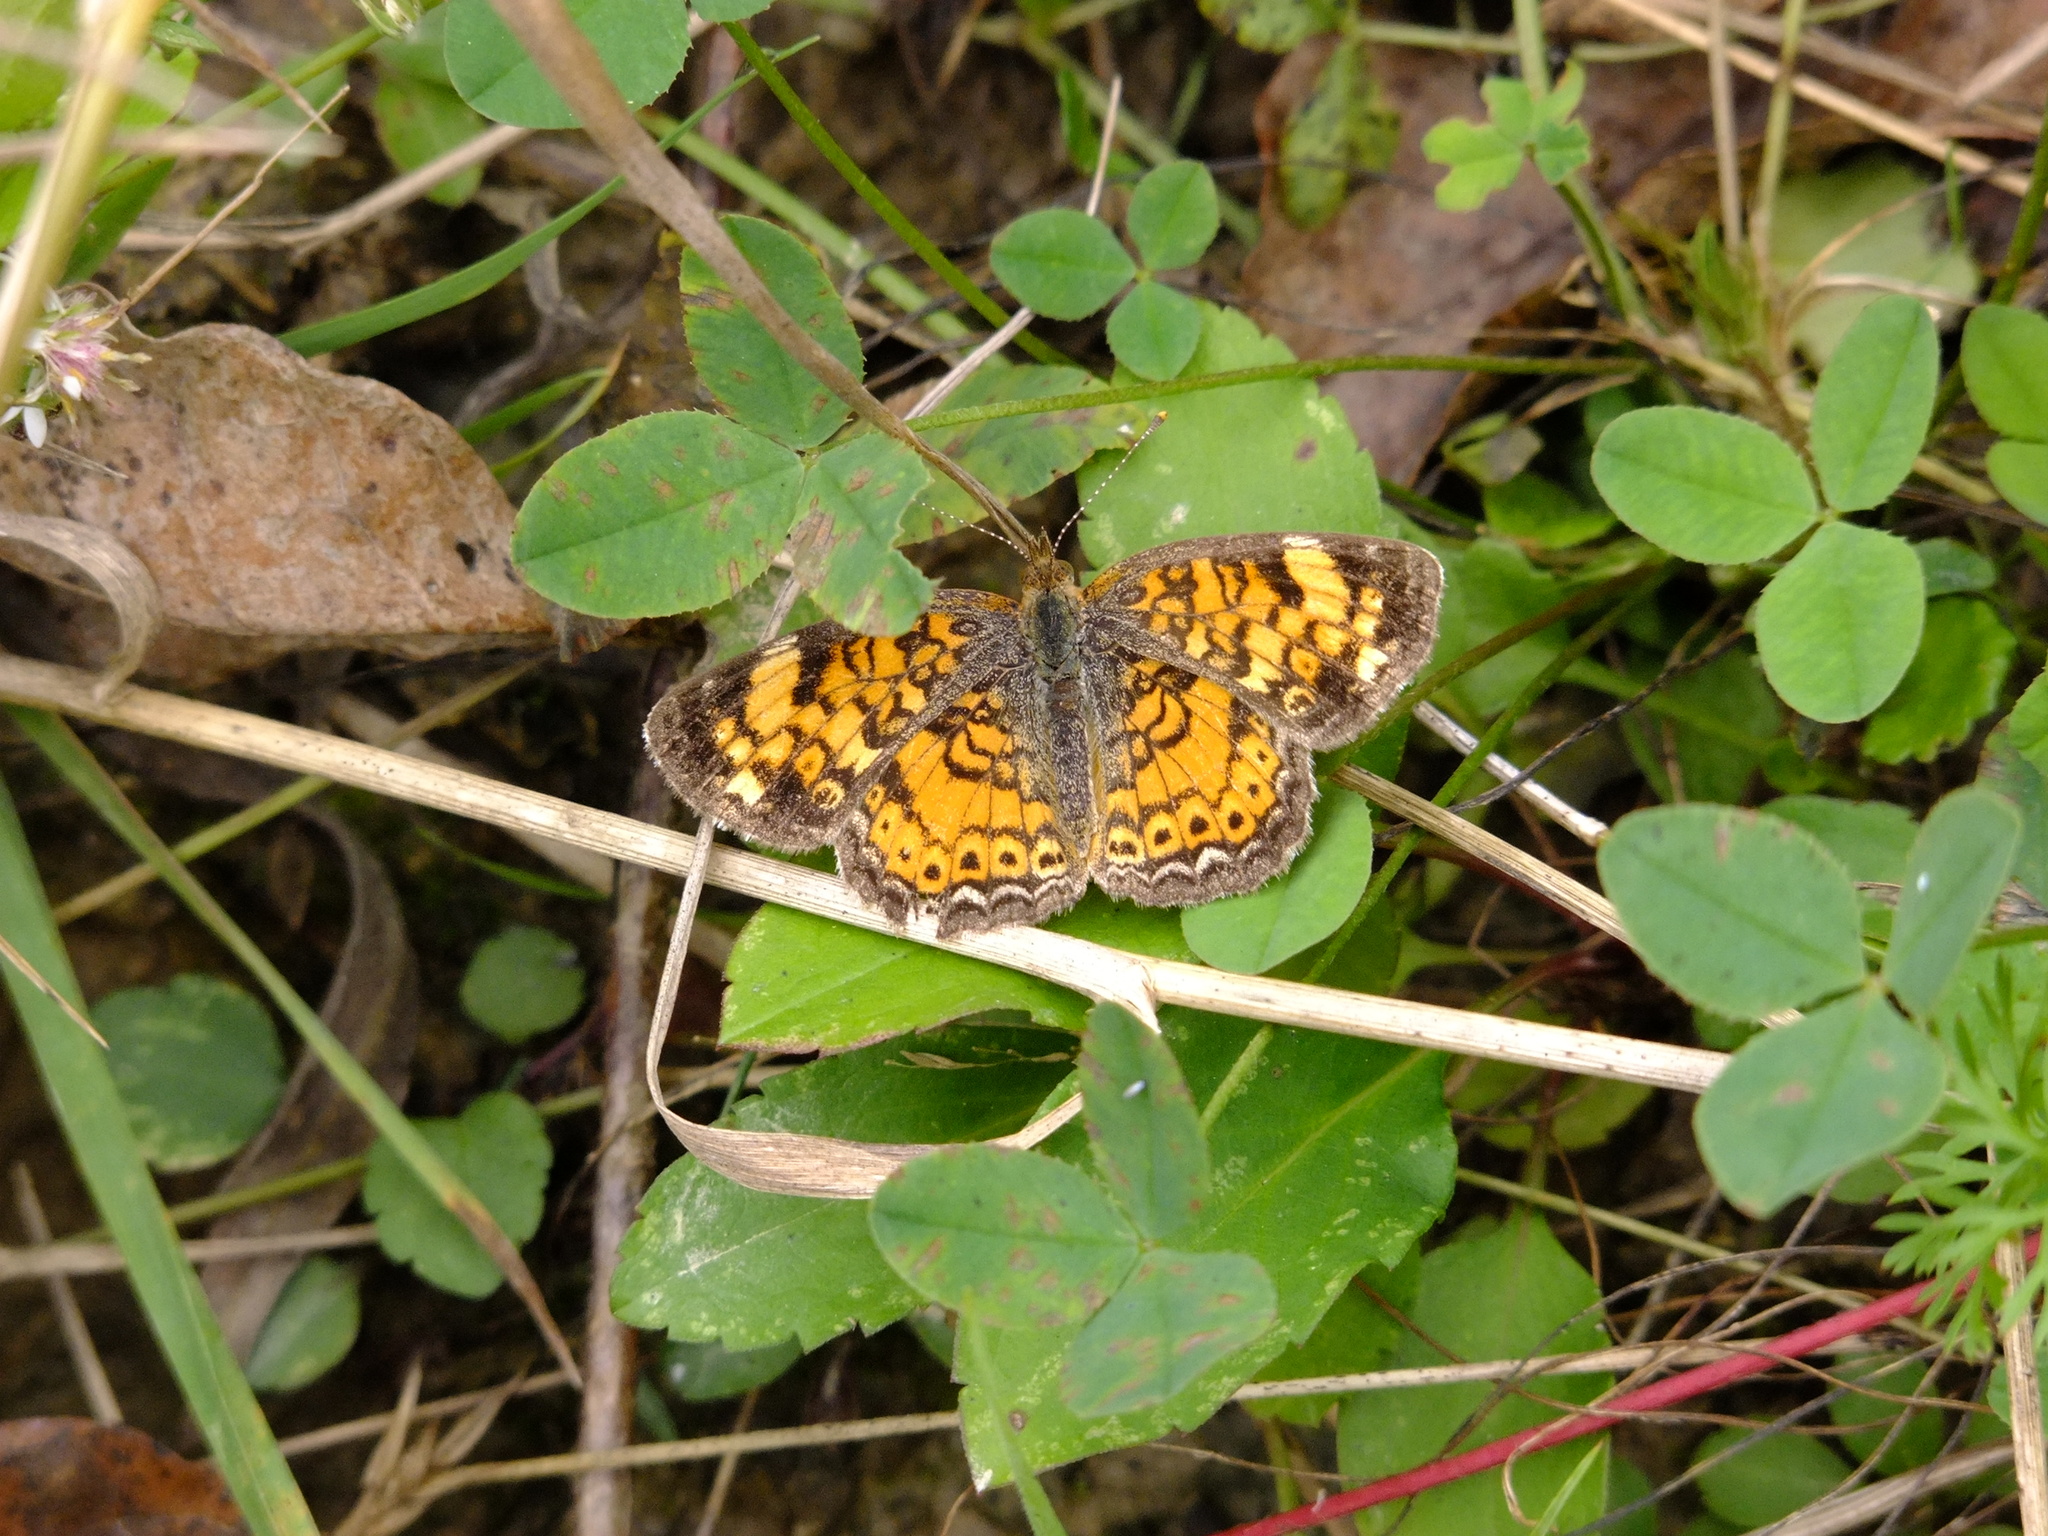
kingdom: Animalia
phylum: Arthropoda
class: Insecta
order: Lepidoptera
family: Nymphalidae
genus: Phyciodes
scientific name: Phyciodes tharos
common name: Pearl crescent
